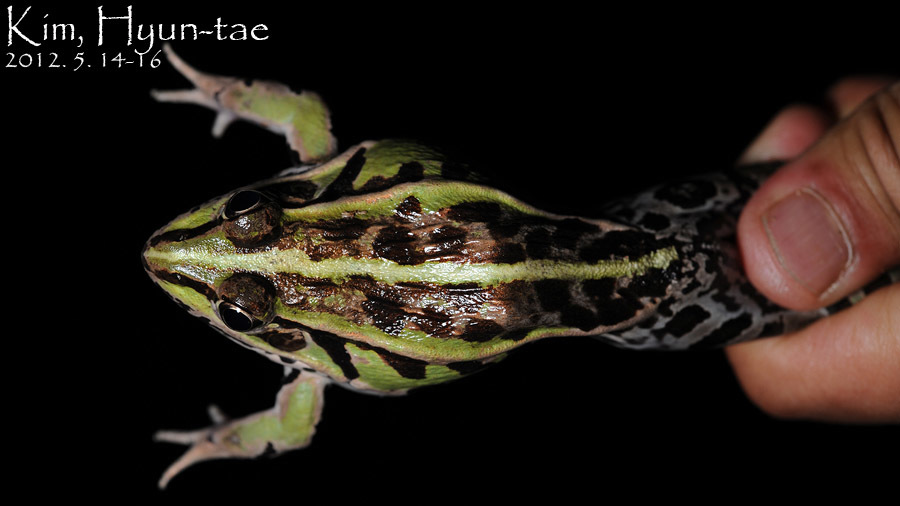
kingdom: Animalia
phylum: Chordata
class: Amphibia
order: Anura
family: Ranidae
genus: Pelophylax
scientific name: Pelophylax nigromaculatus
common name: Black-spotted pond frog
